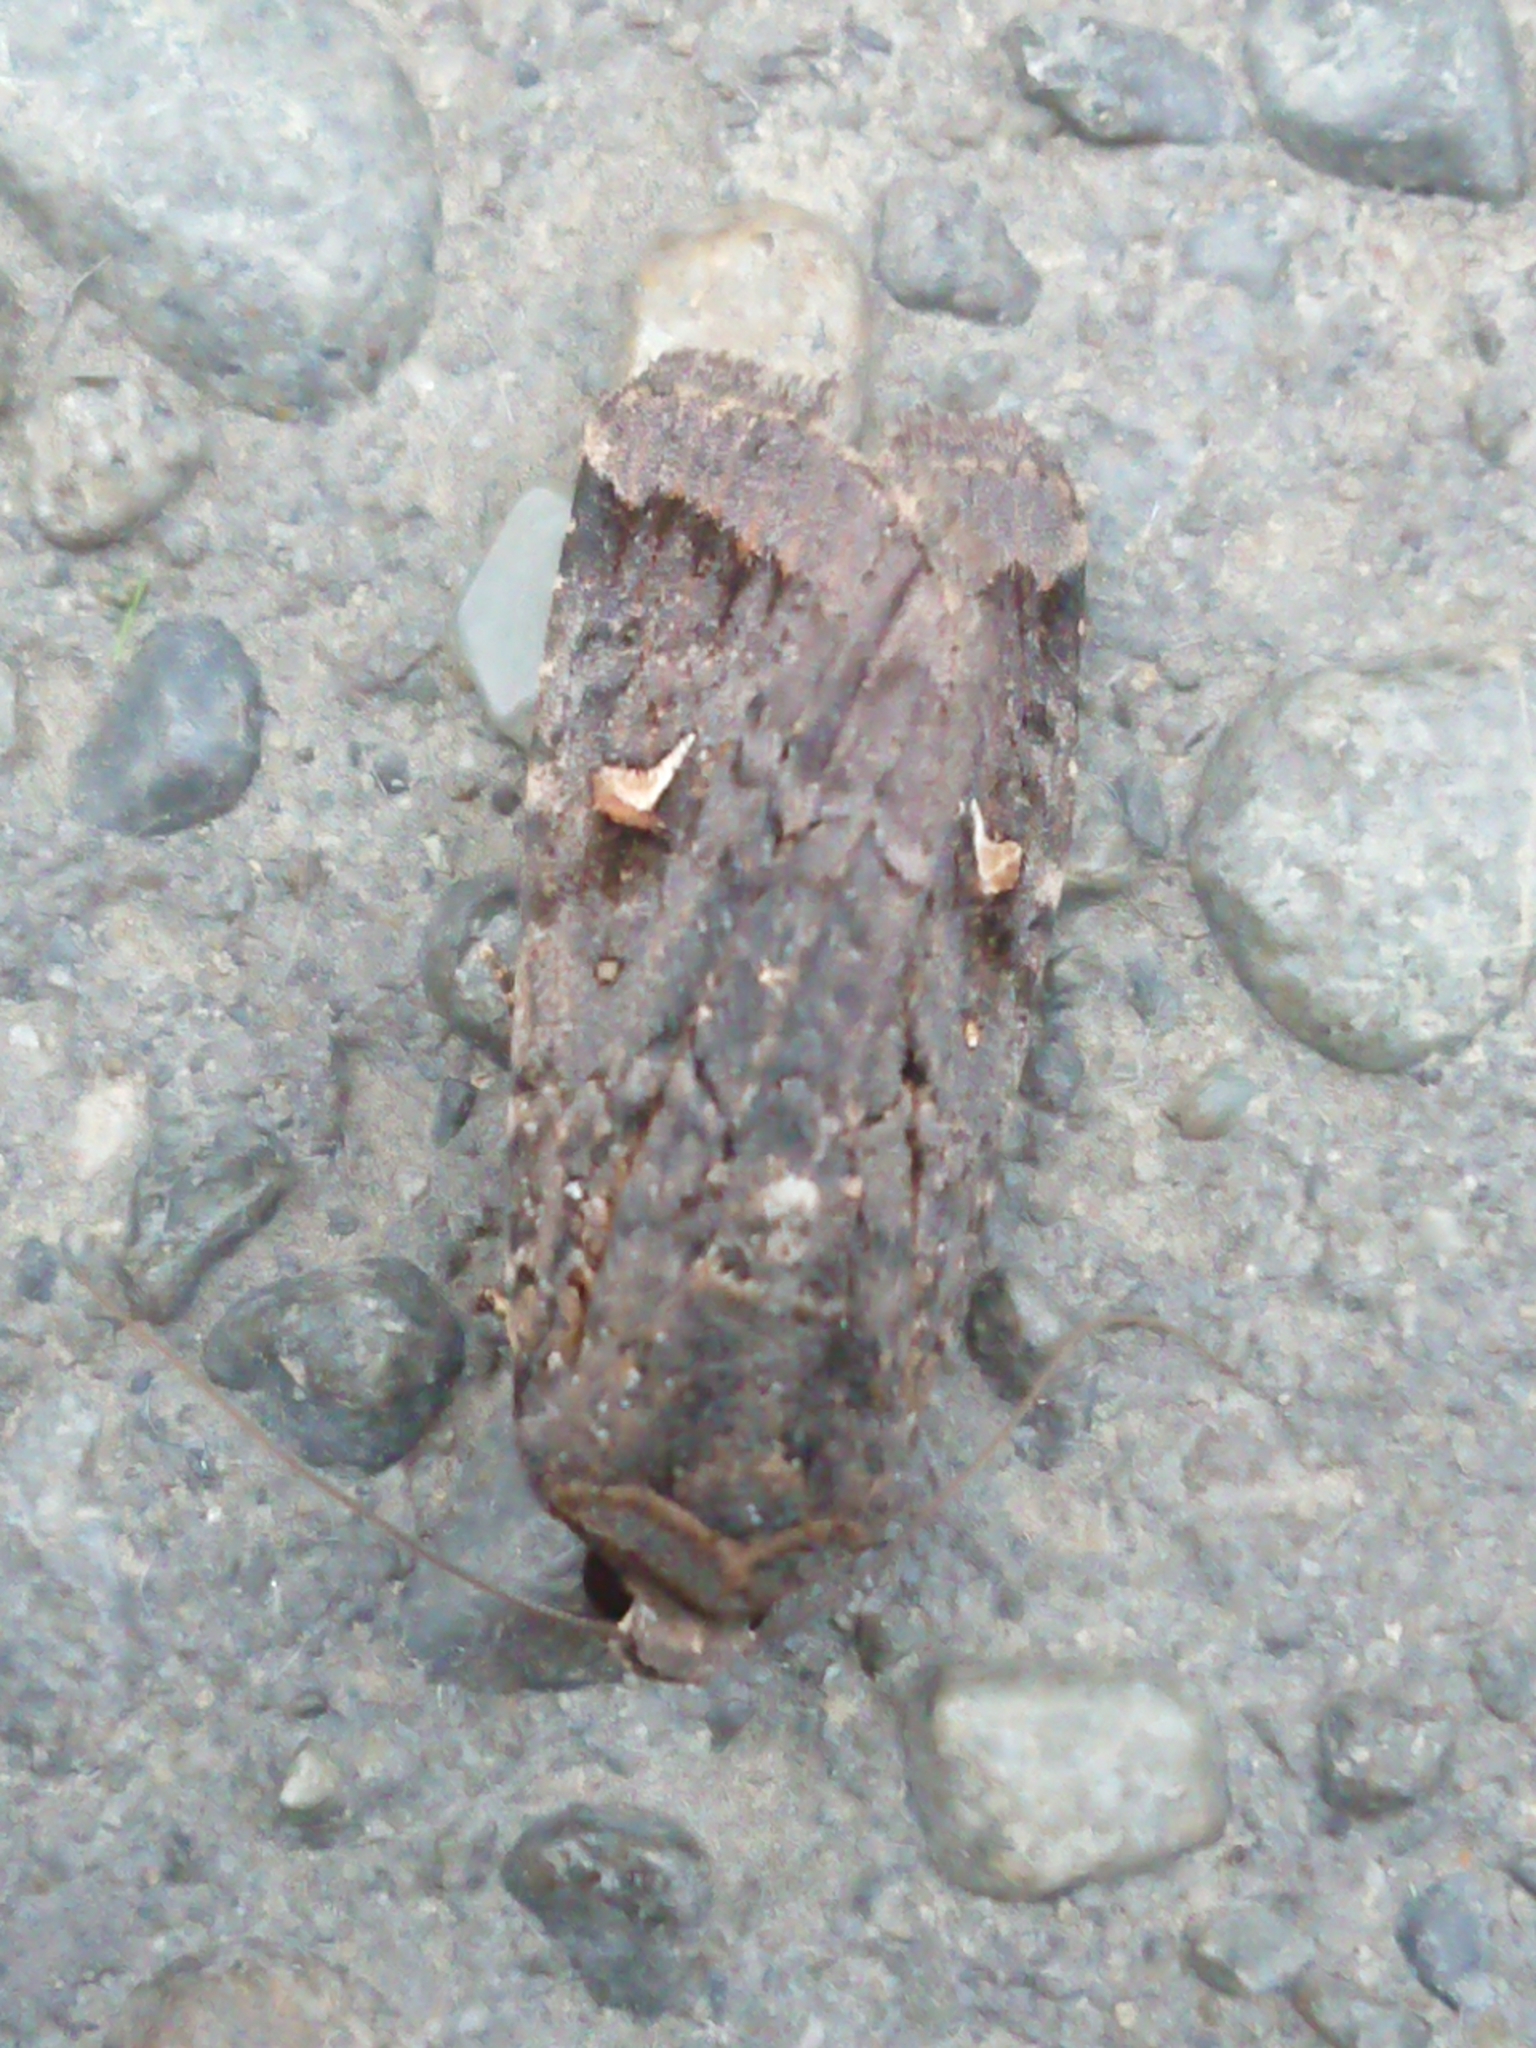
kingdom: Animalia
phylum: Arthropoda
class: Insecta
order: Lepidoptera
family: Noctuidae
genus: Proteuxoa
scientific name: Proteuxoa comma
